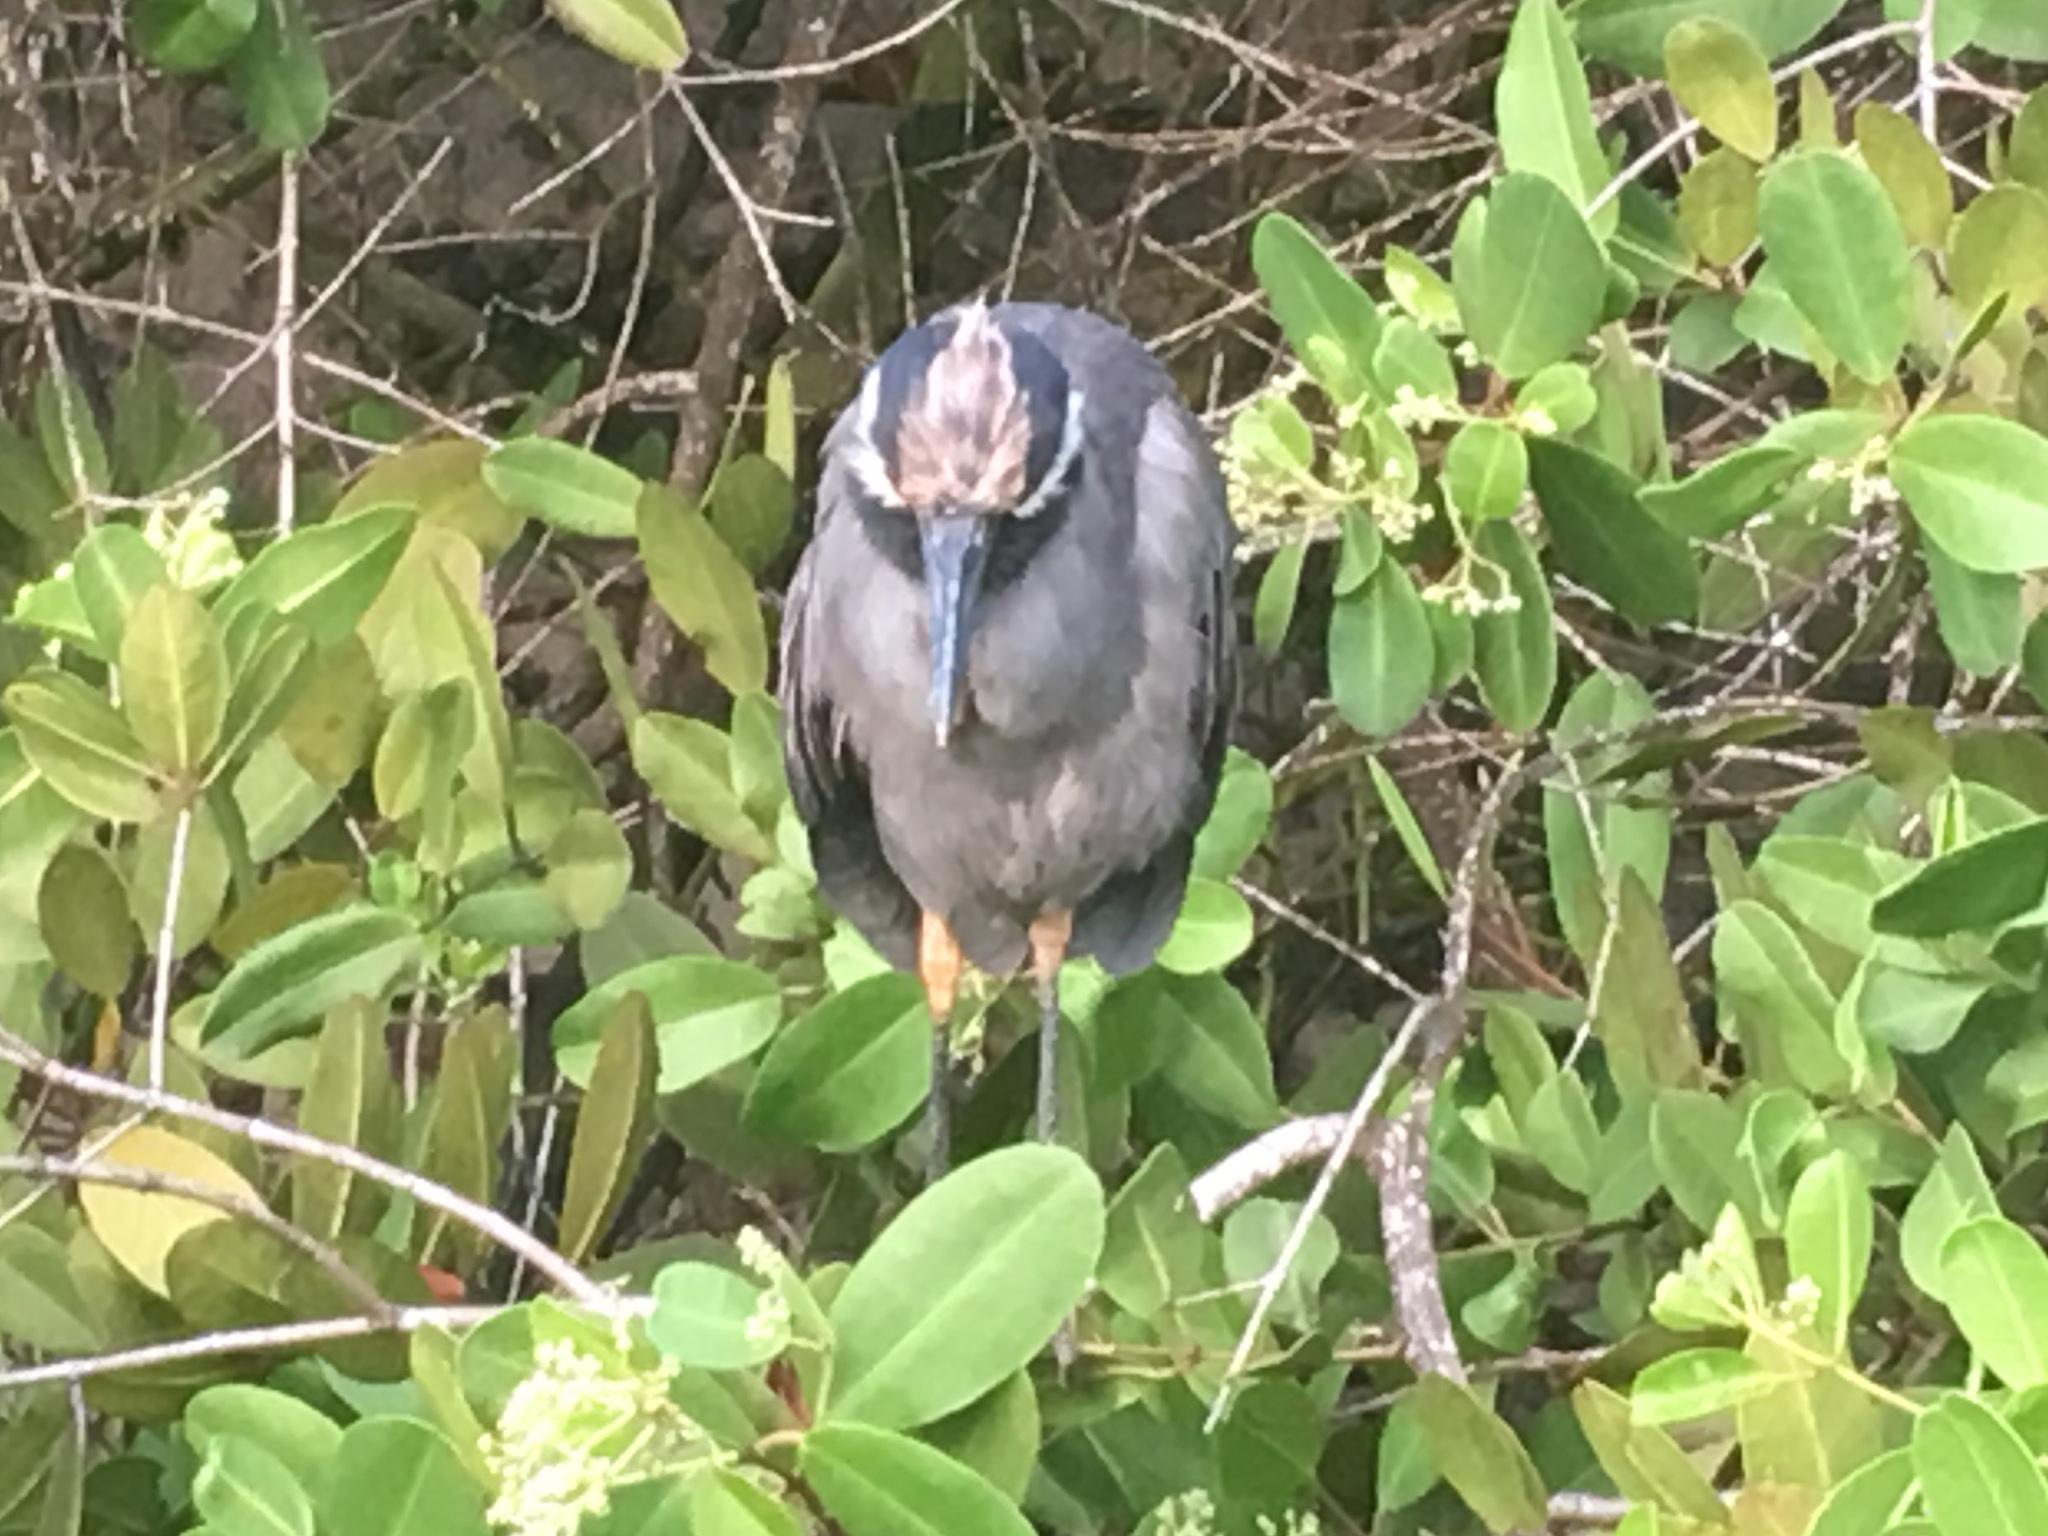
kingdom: Animalia
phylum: Chordata
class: Aves
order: Pelecaniformes
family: Ardeidae
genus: Nyctanassa
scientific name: Nyctanassa violacea
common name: Yellow-crowned night heron
